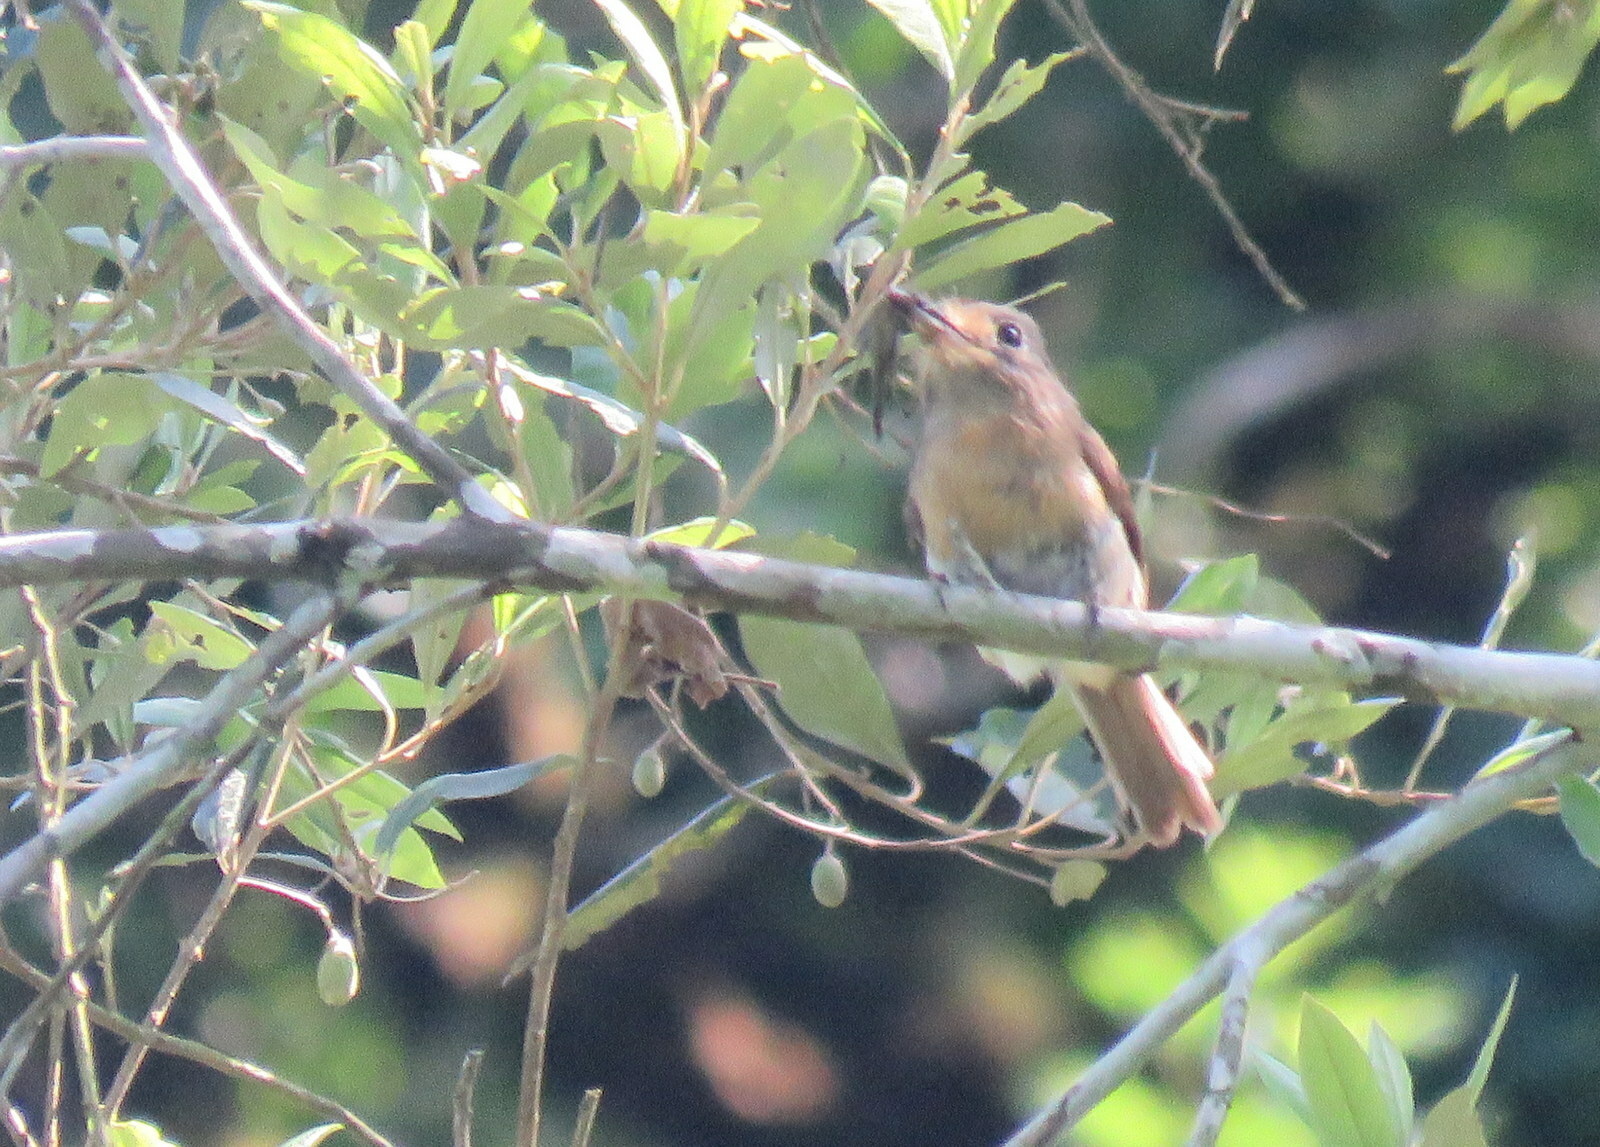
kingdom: Animalia
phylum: Chordata
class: Aves
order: Piciformes
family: Bucconidae
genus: Nonnula
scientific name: Nonnula rubecula
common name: Rusty-breasted nunlet
